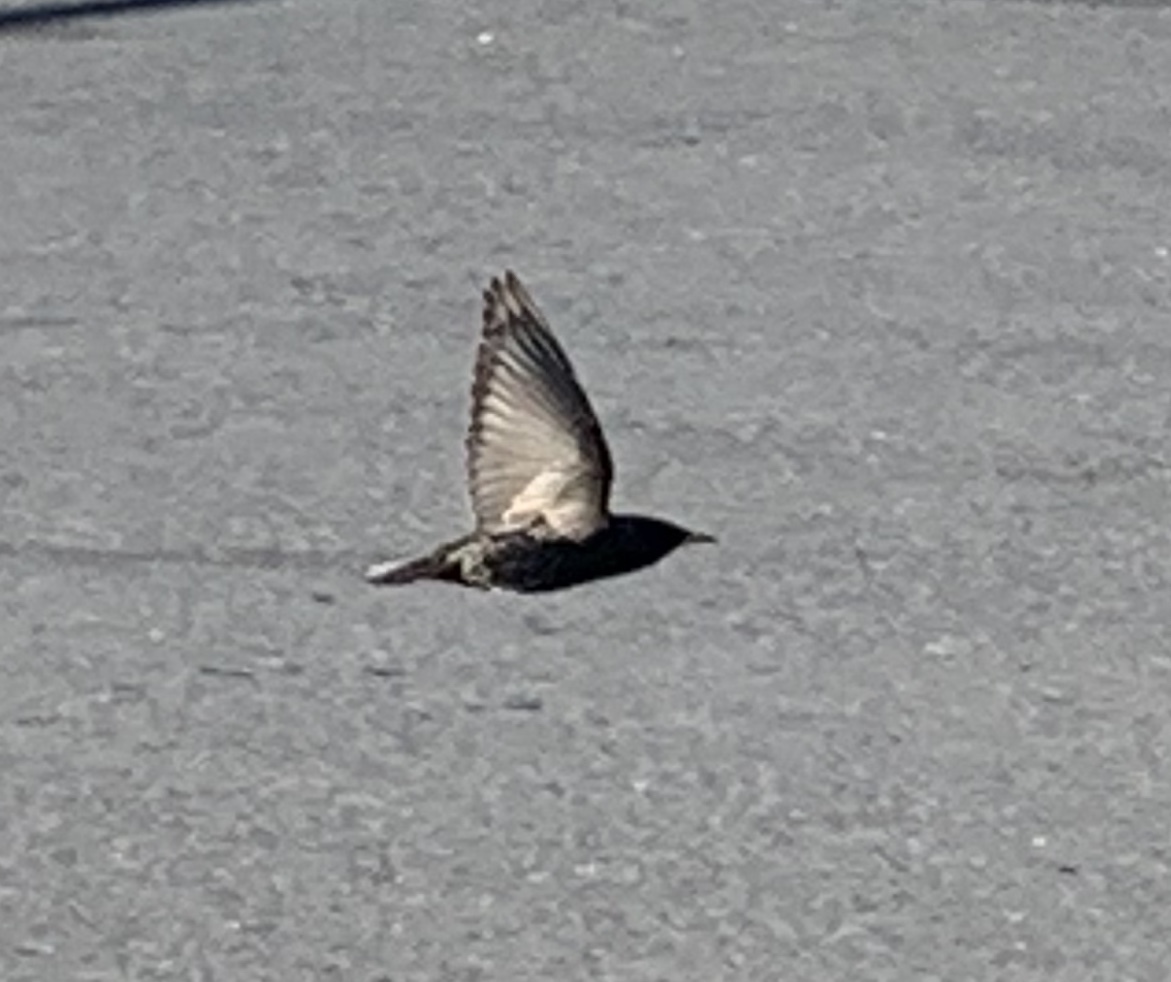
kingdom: Animalia
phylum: Chordata
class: Aves
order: Passeriformes
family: Sturnidae
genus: Sturnus
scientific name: Sturnus vulgaris
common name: Common starling
